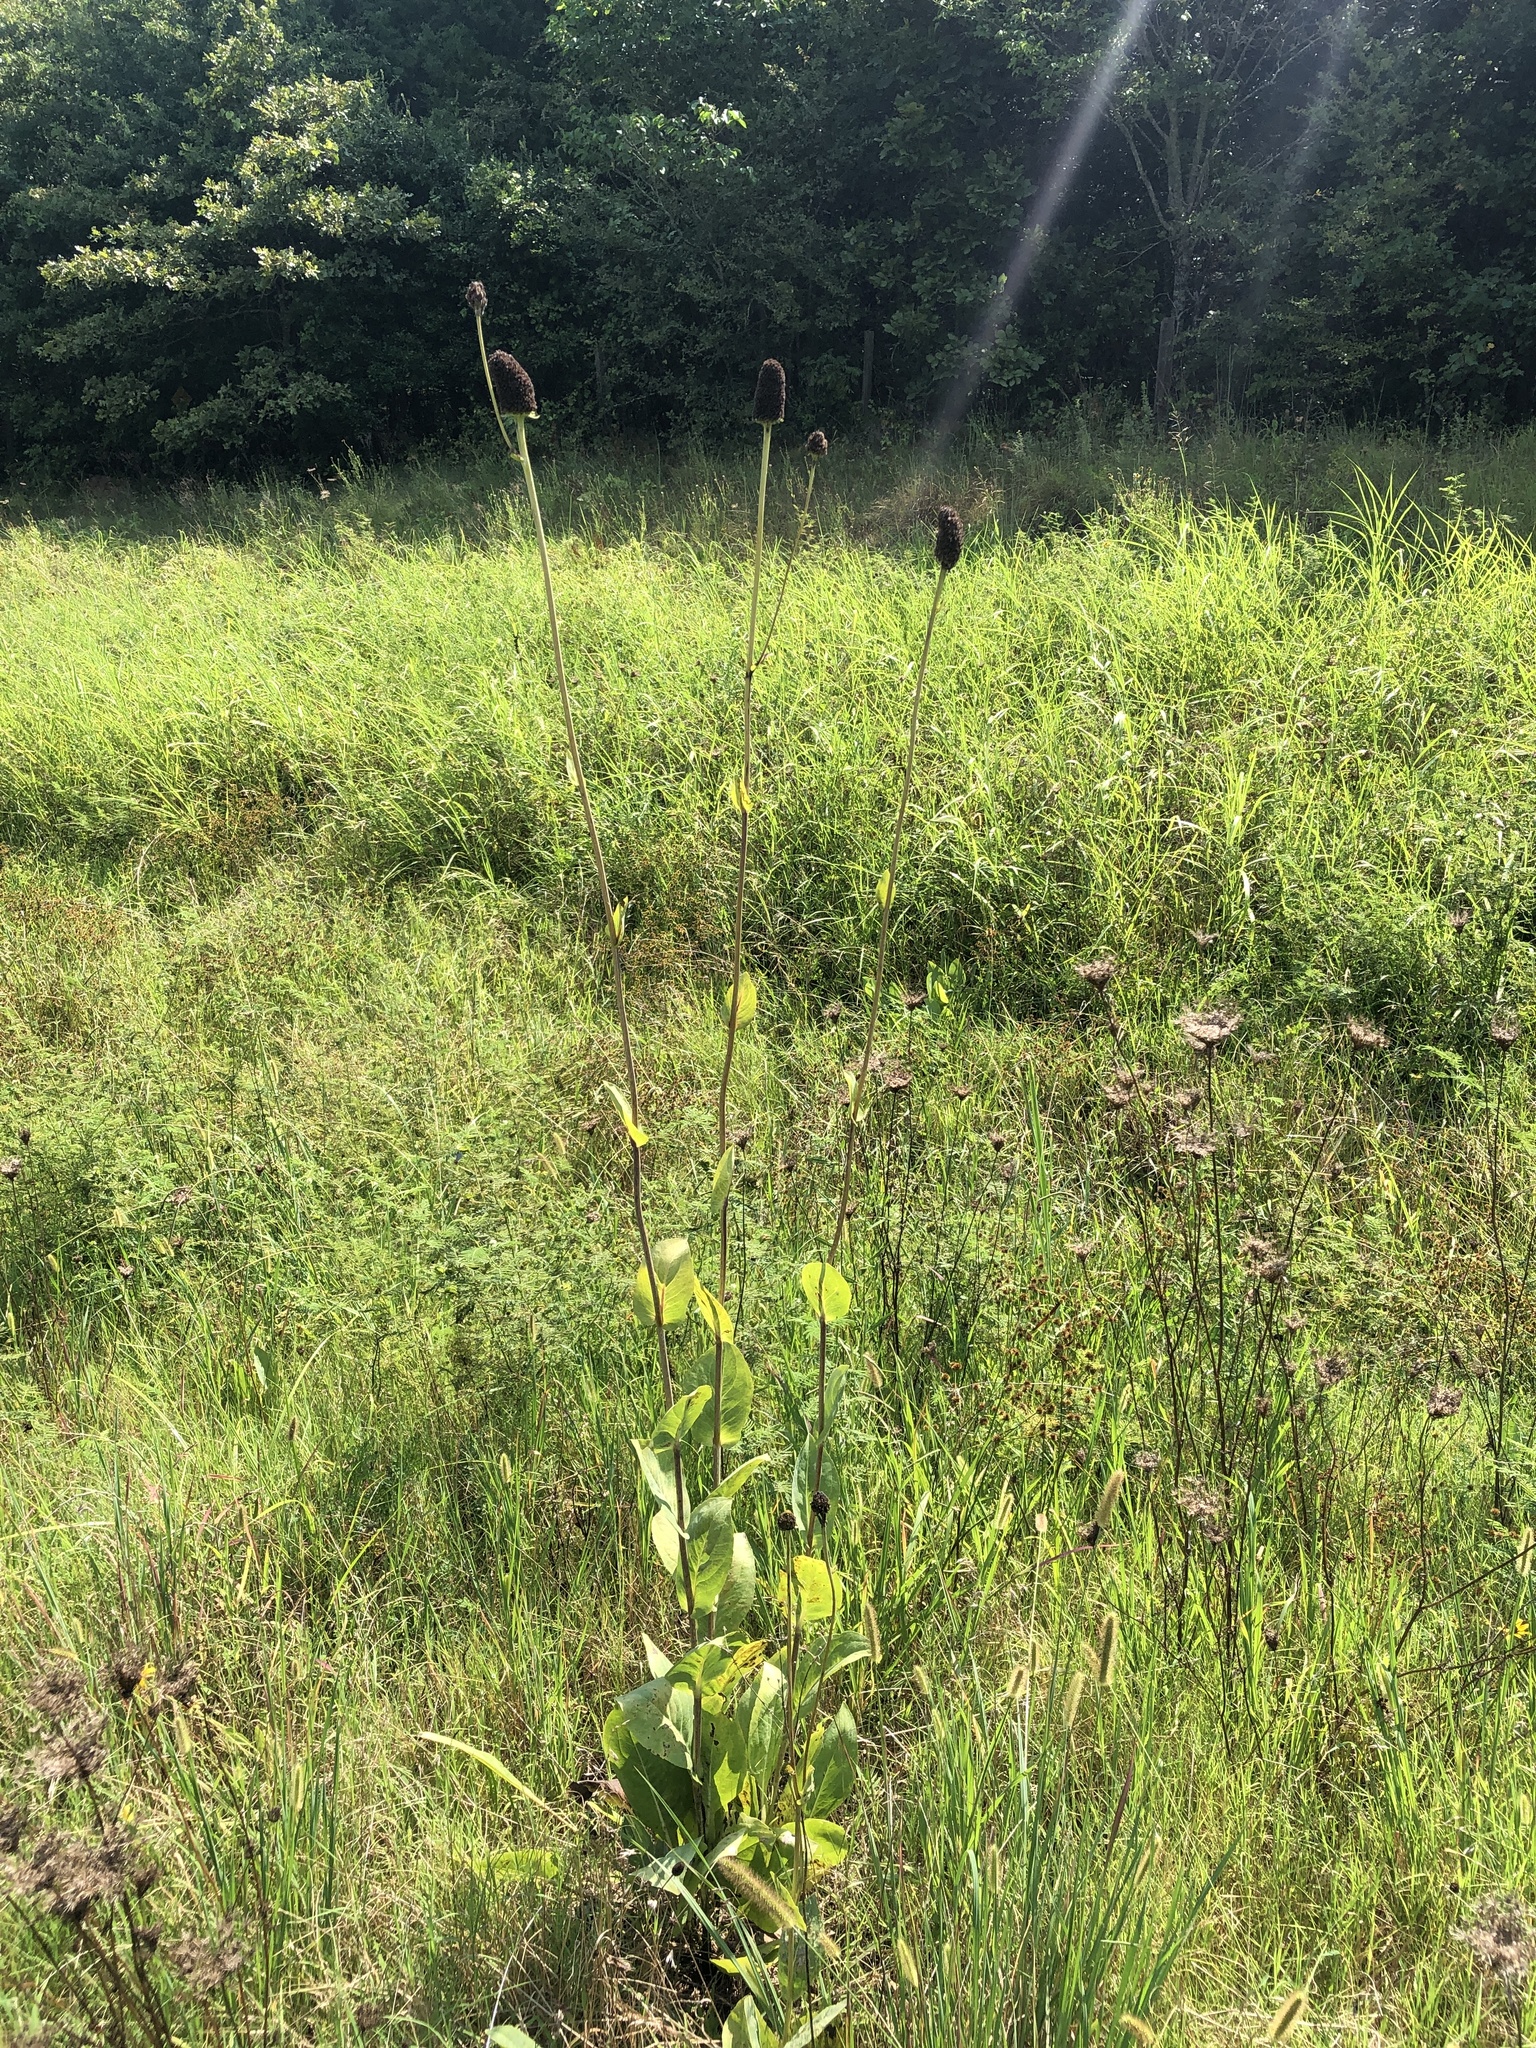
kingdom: Plantae
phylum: Tracheophyta
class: Magnoliopsida
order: Asterales
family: Asteraceae
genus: Rudbeckia
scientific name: Rudbeckia maxima
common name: Cabbage coneflower
